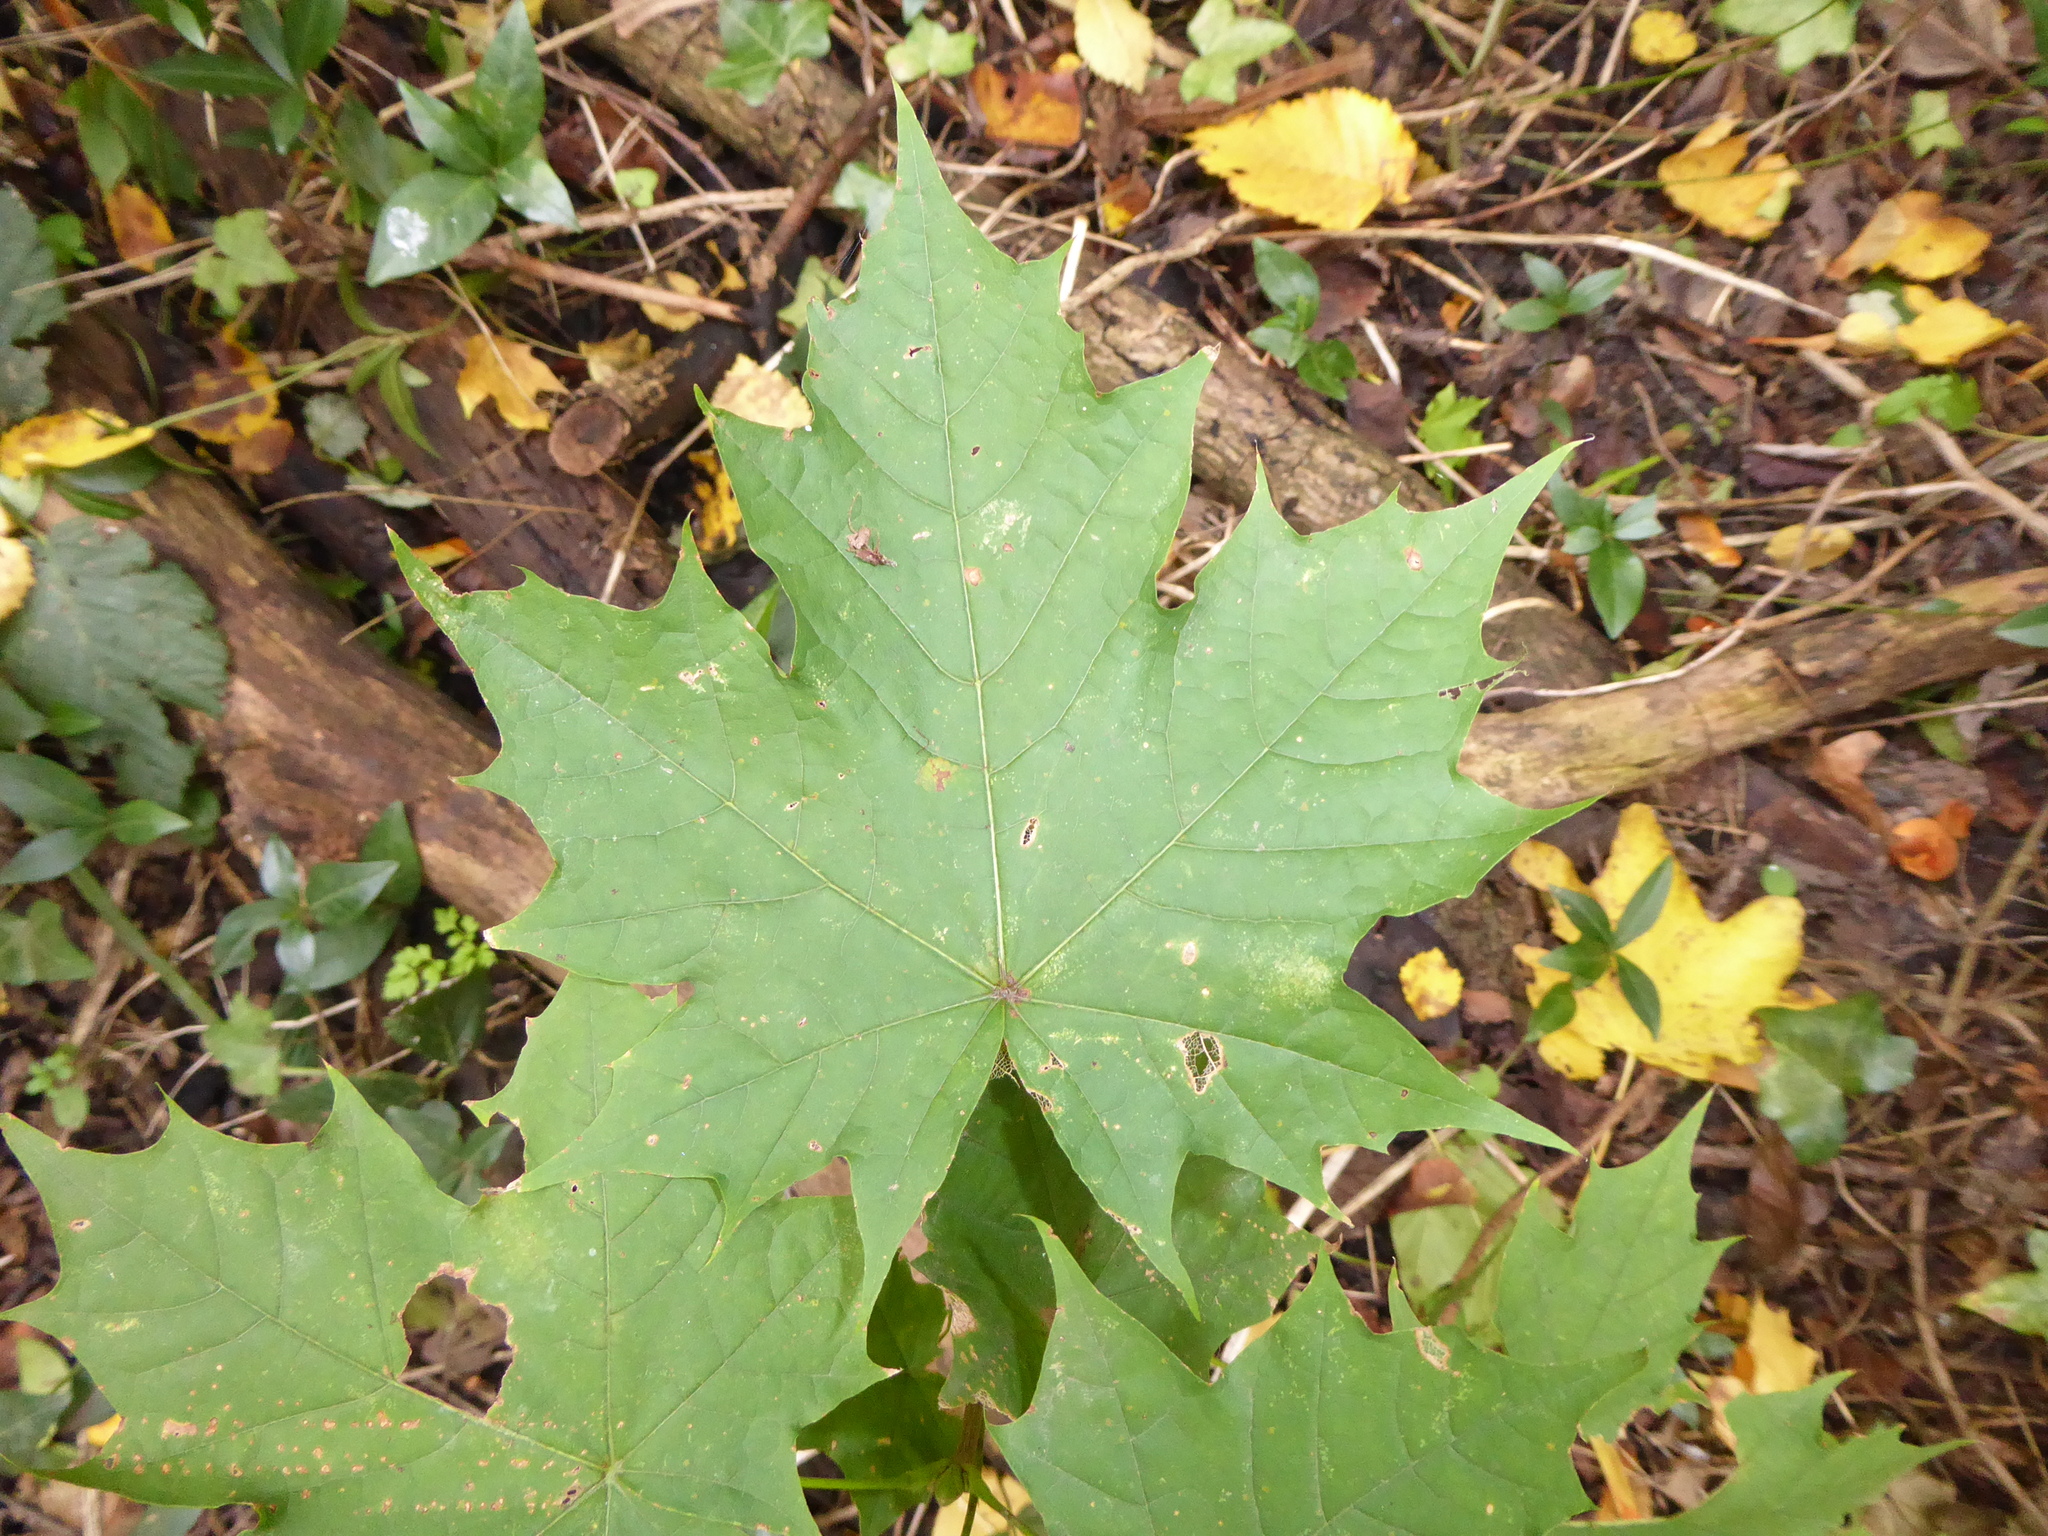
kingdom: Plantae
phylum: Tracheophyta
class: Magnoliopsida
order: Sapindales
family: Sapindaceae
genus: Acer
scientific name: Acer platanoides
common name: Norway maple
